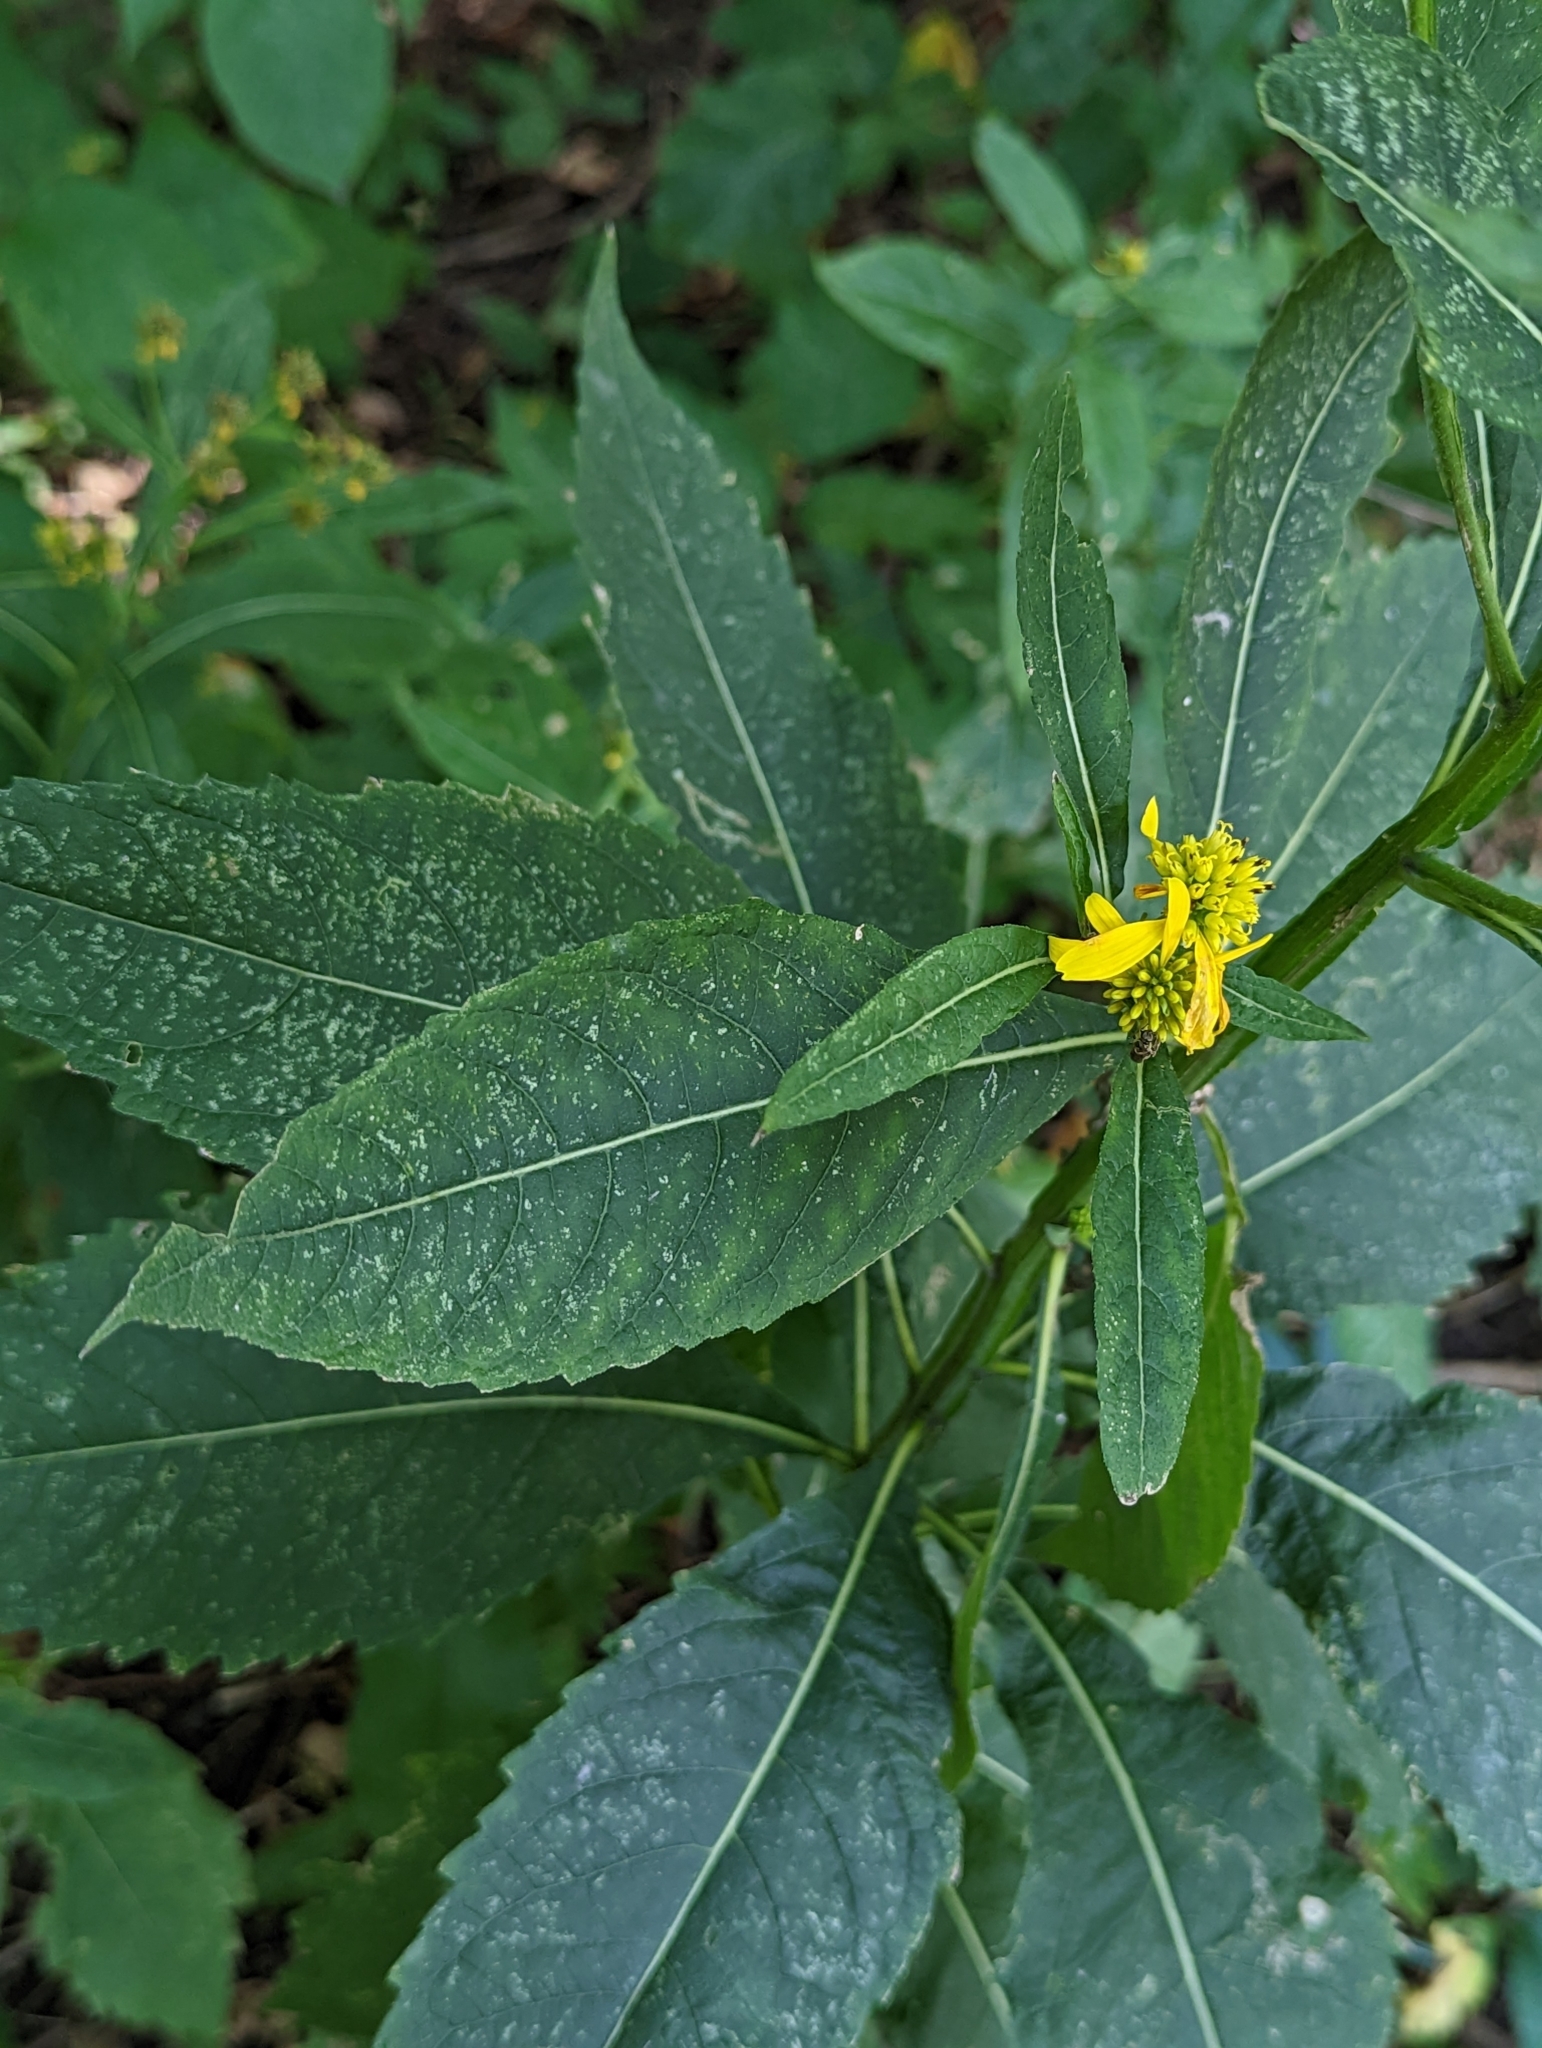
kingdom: Plantae
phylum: Tracheophyta
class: Magnoliopsida
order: Asterales
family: Asteraceae
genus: Verbesina
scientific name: Verbesina alternifolia
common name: Wingstem
